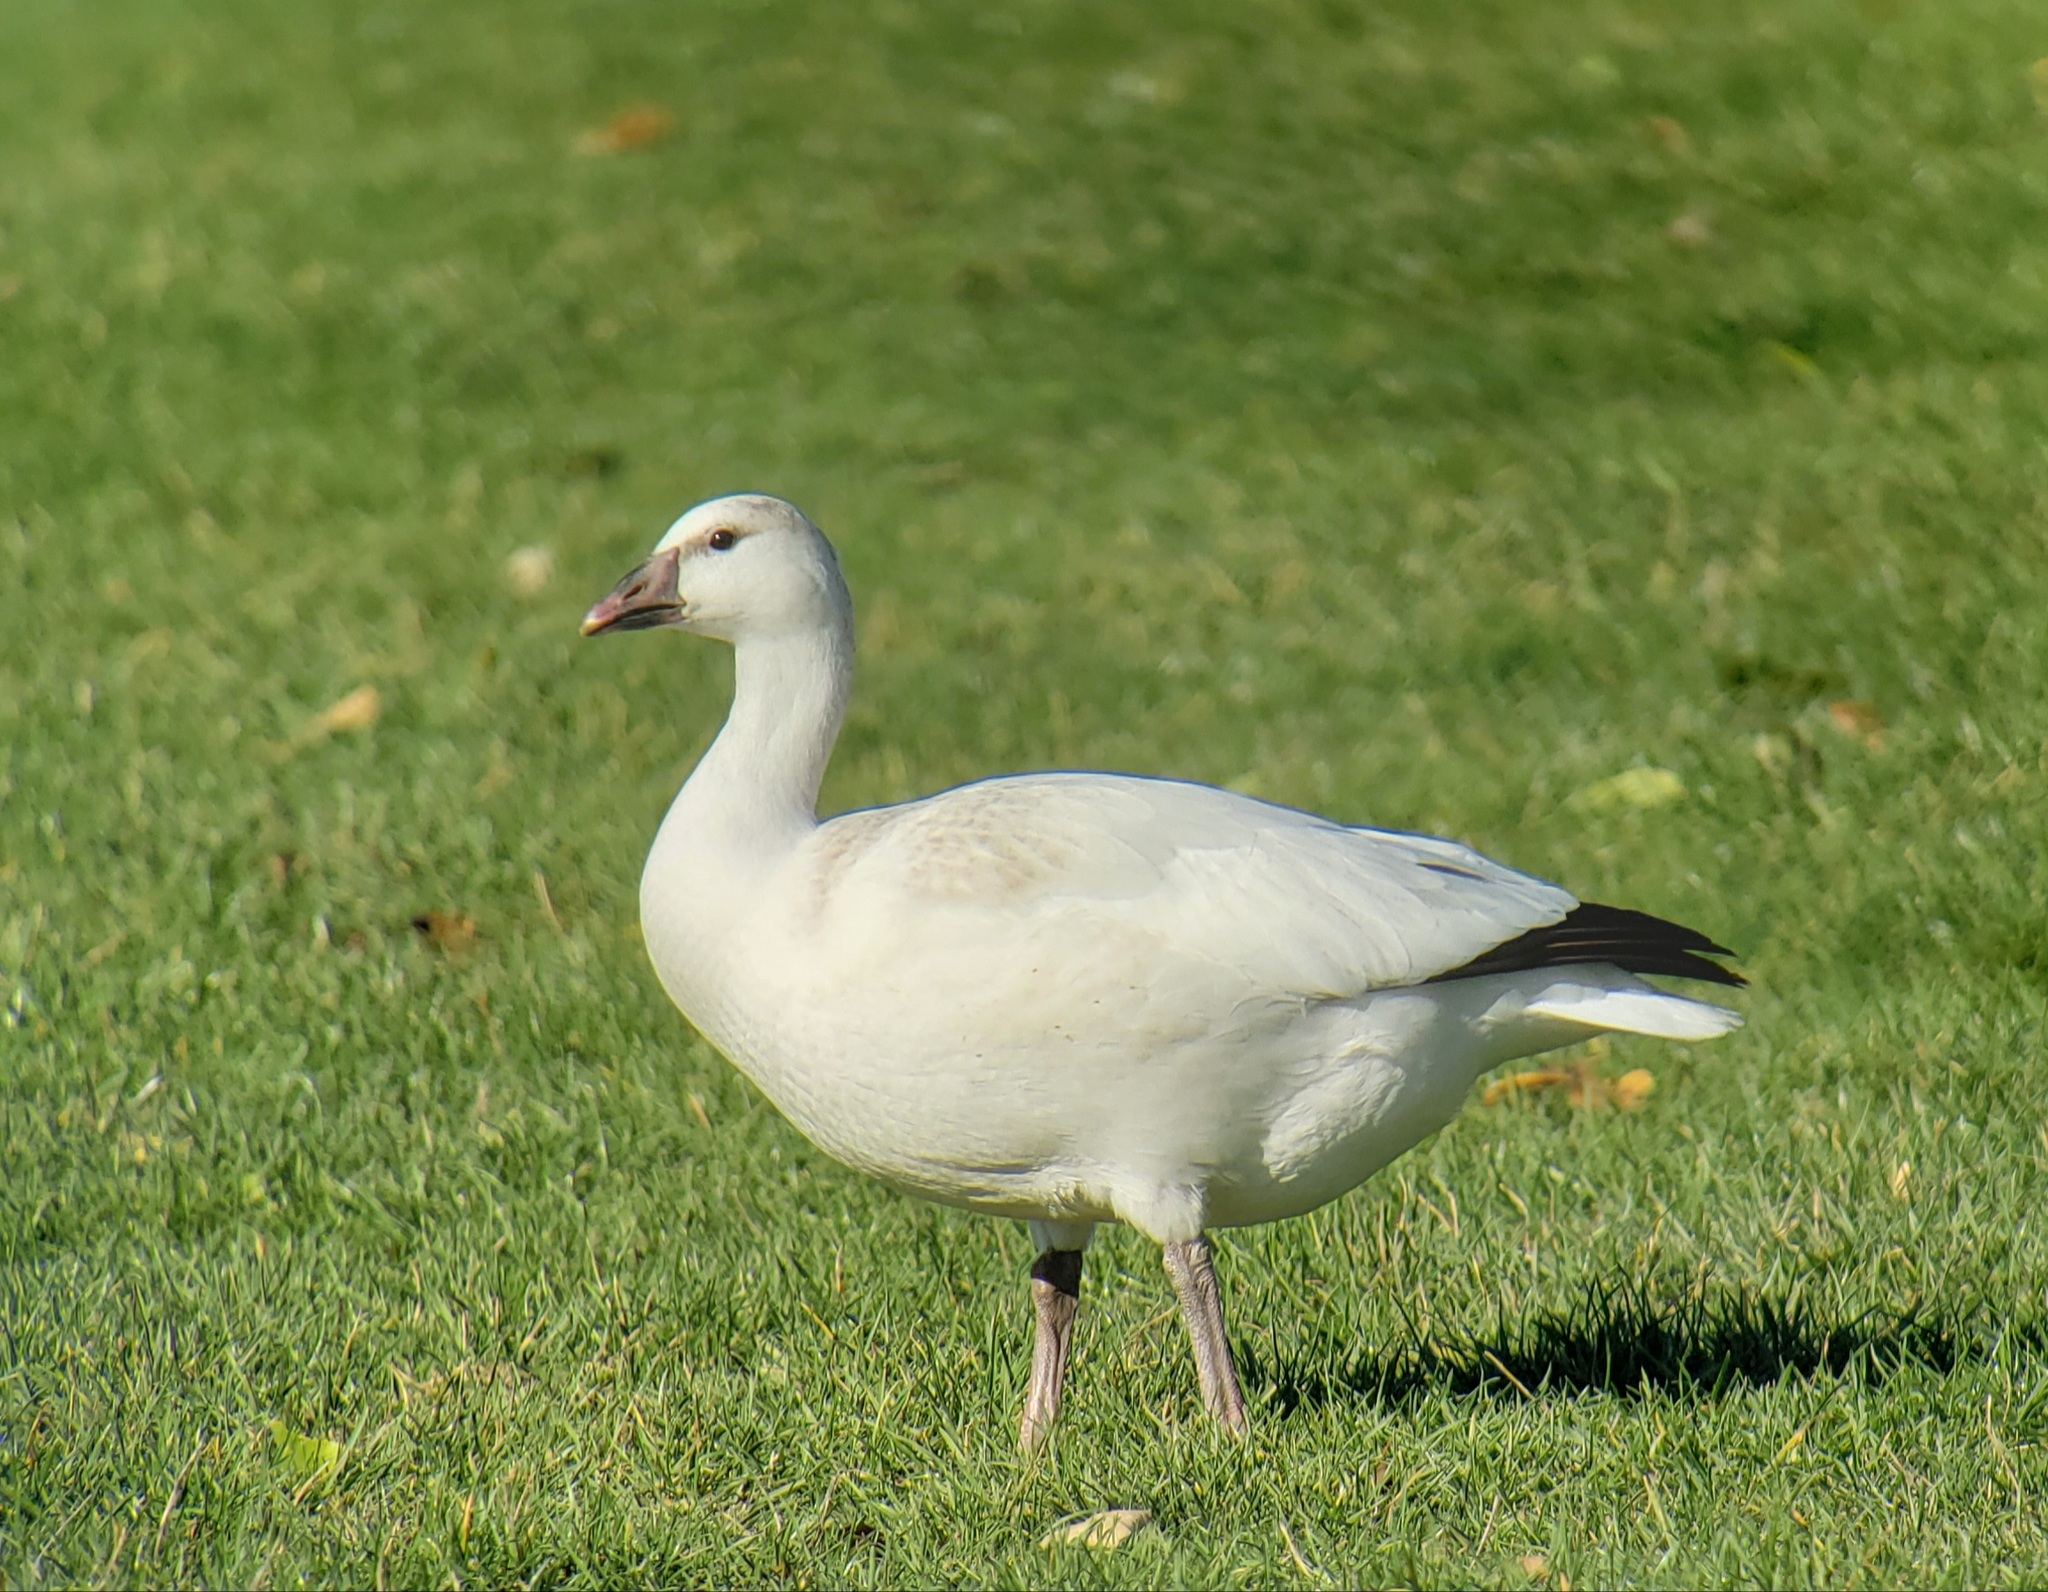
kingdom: Animalia
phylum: Chordata
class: Aves
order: Anseriformes
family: Anatidae
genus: Anser
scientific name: Anser rossii
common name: Ross's goose
